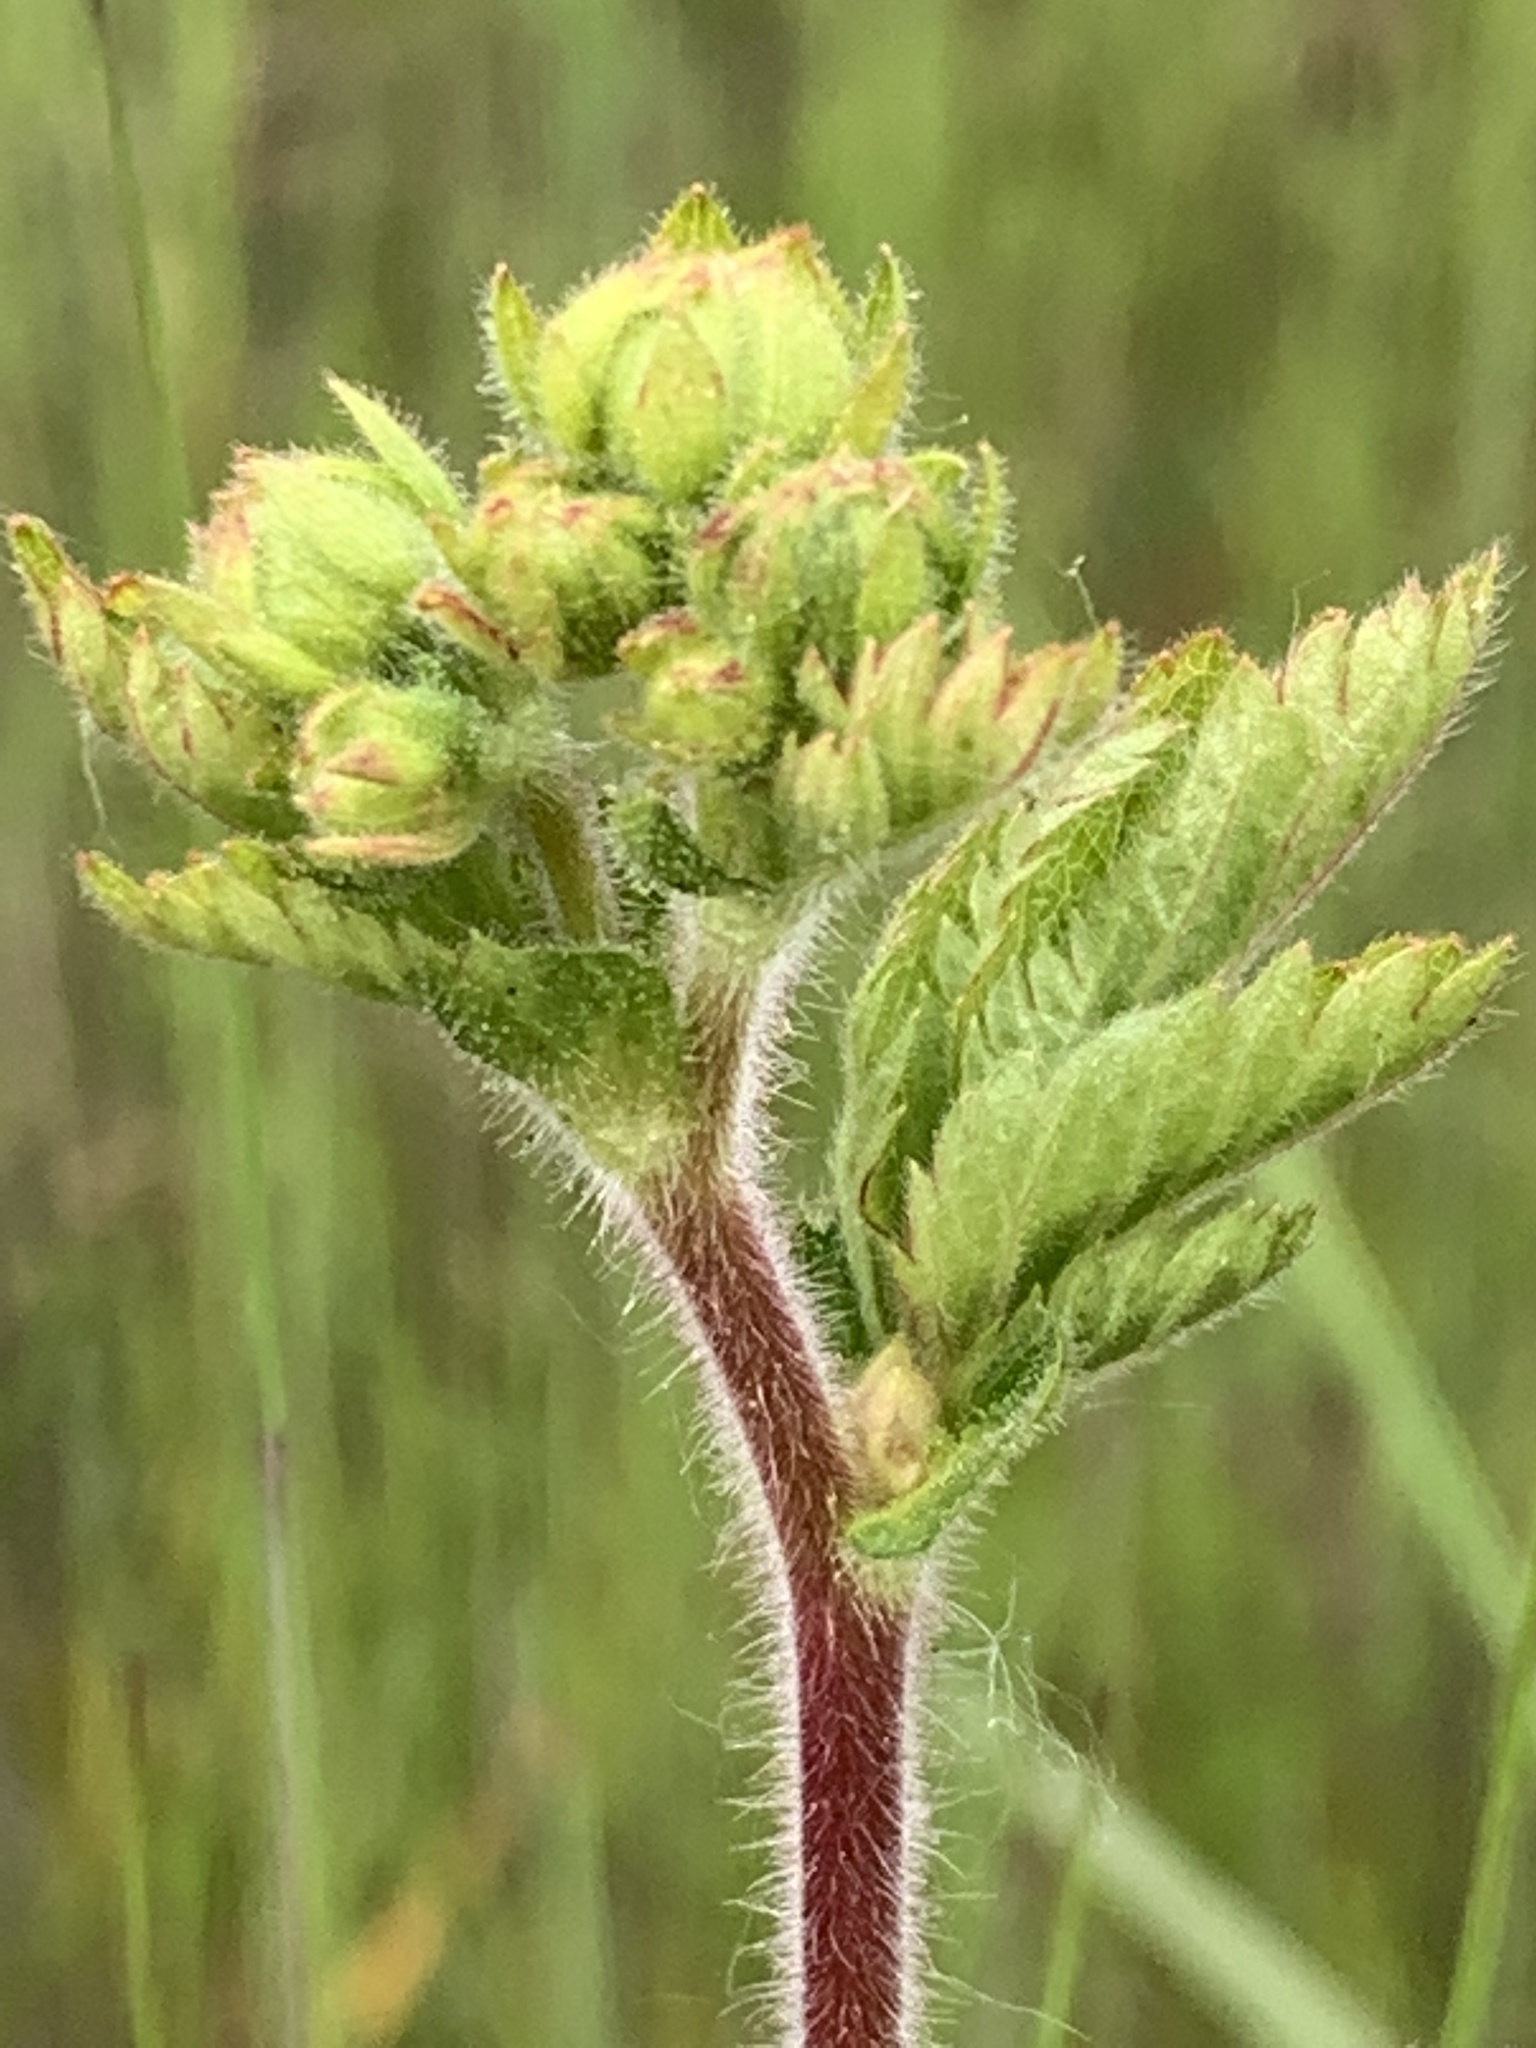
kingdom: Plantae
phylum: Tracheophyta
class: Magnoliopsida
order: Rosales
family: Rosaceae
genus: Drymocallis
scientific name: Drymocallis glandulosa
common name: Sticky cinquefoil
